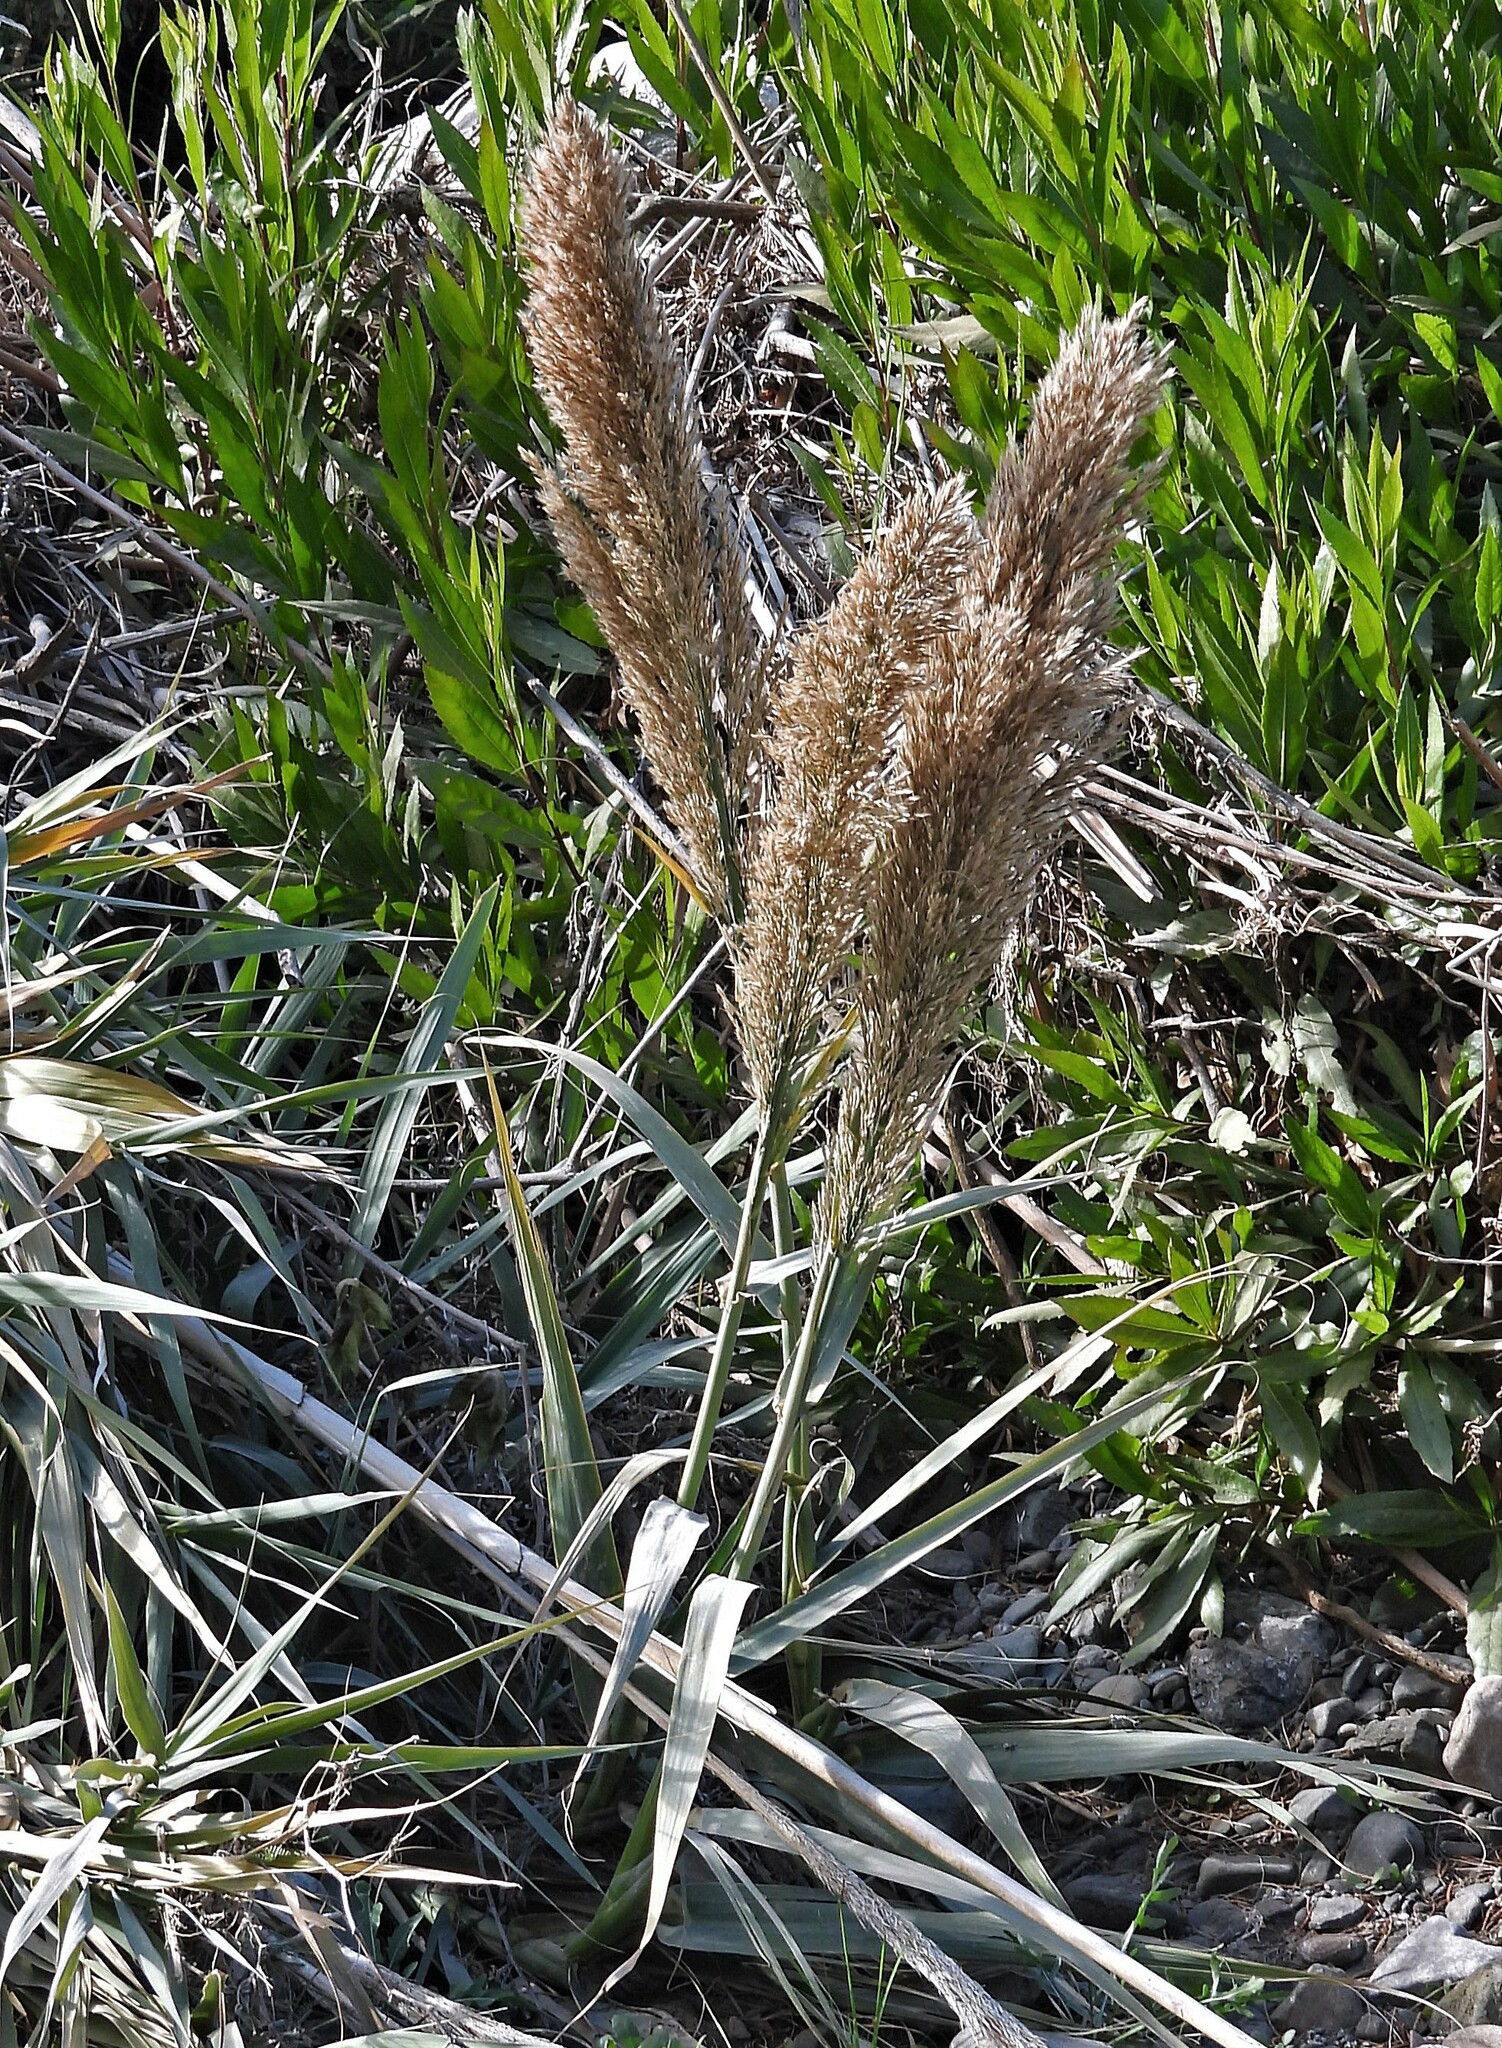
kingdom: Plantae
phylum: Tracheophyta
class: Liliopsida
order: Poales
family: Poaceae
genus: Phragmites
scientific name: Phragmites australis
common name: Common reed
